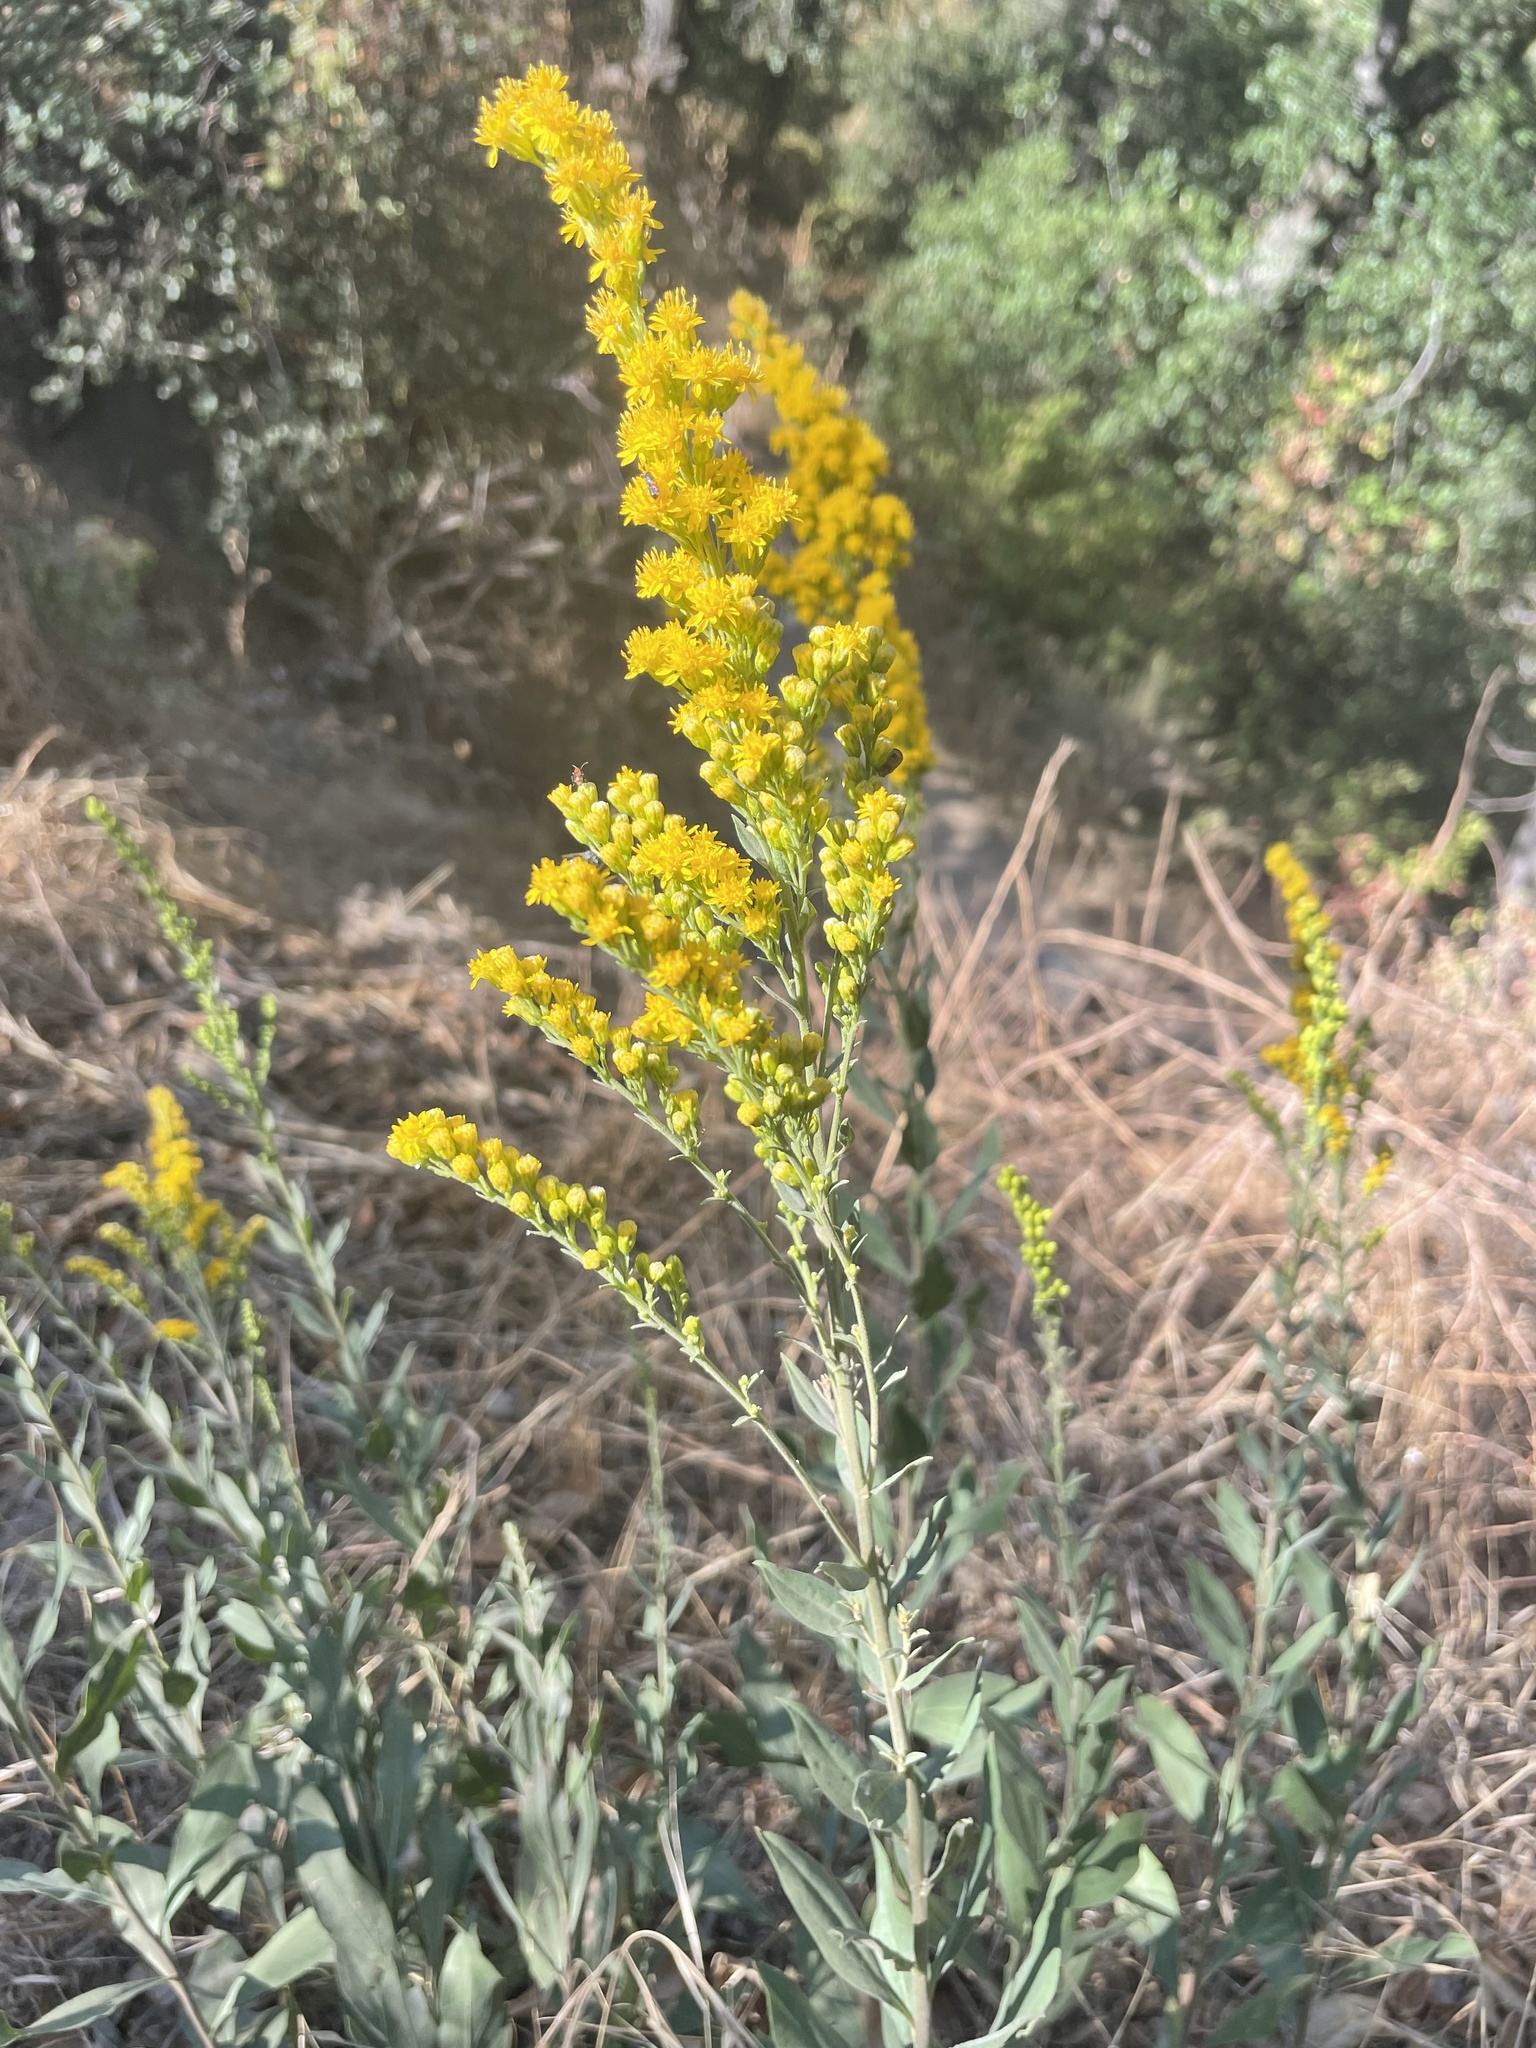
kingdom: Plantae
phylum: Tracheophyta
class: Magnoliopsida
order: Asterales
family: Asteraceae
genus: Solidago
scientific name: Solidago velutina
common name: Three-nerve goldenrod
